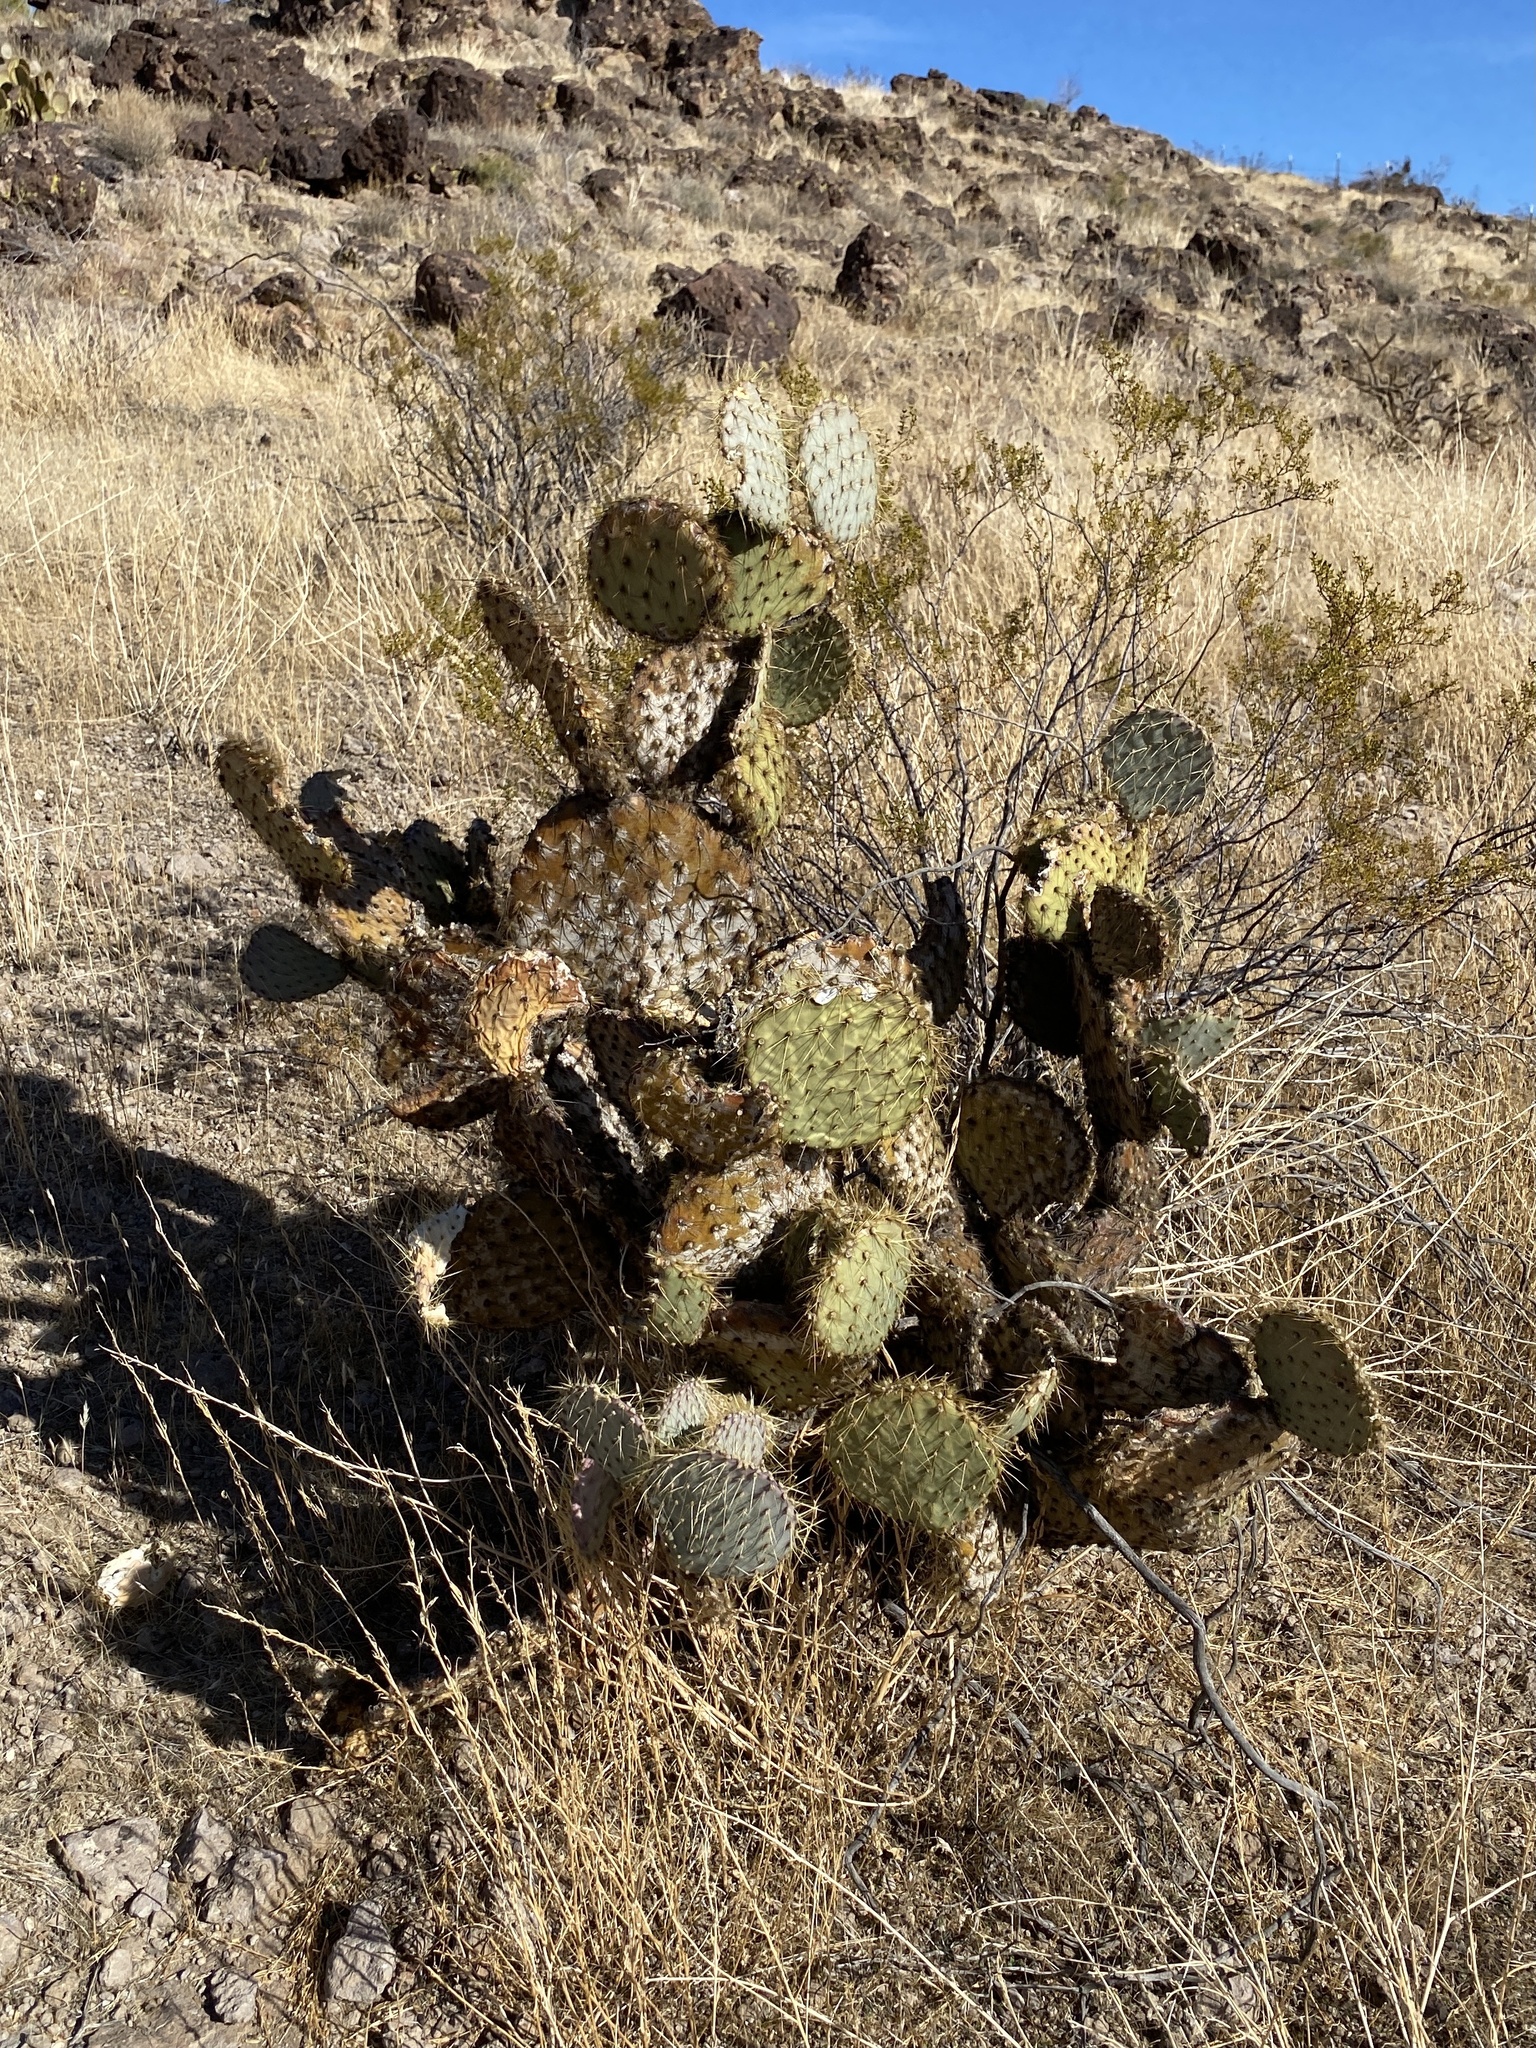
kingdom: Plantae
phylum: Tracheophyta
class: Magnoliopsida
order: Caryophyllales
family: Cactaceae
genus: Opuntia
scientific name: Opuntia chlorotica
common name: Dollar-joint prickly-pear
